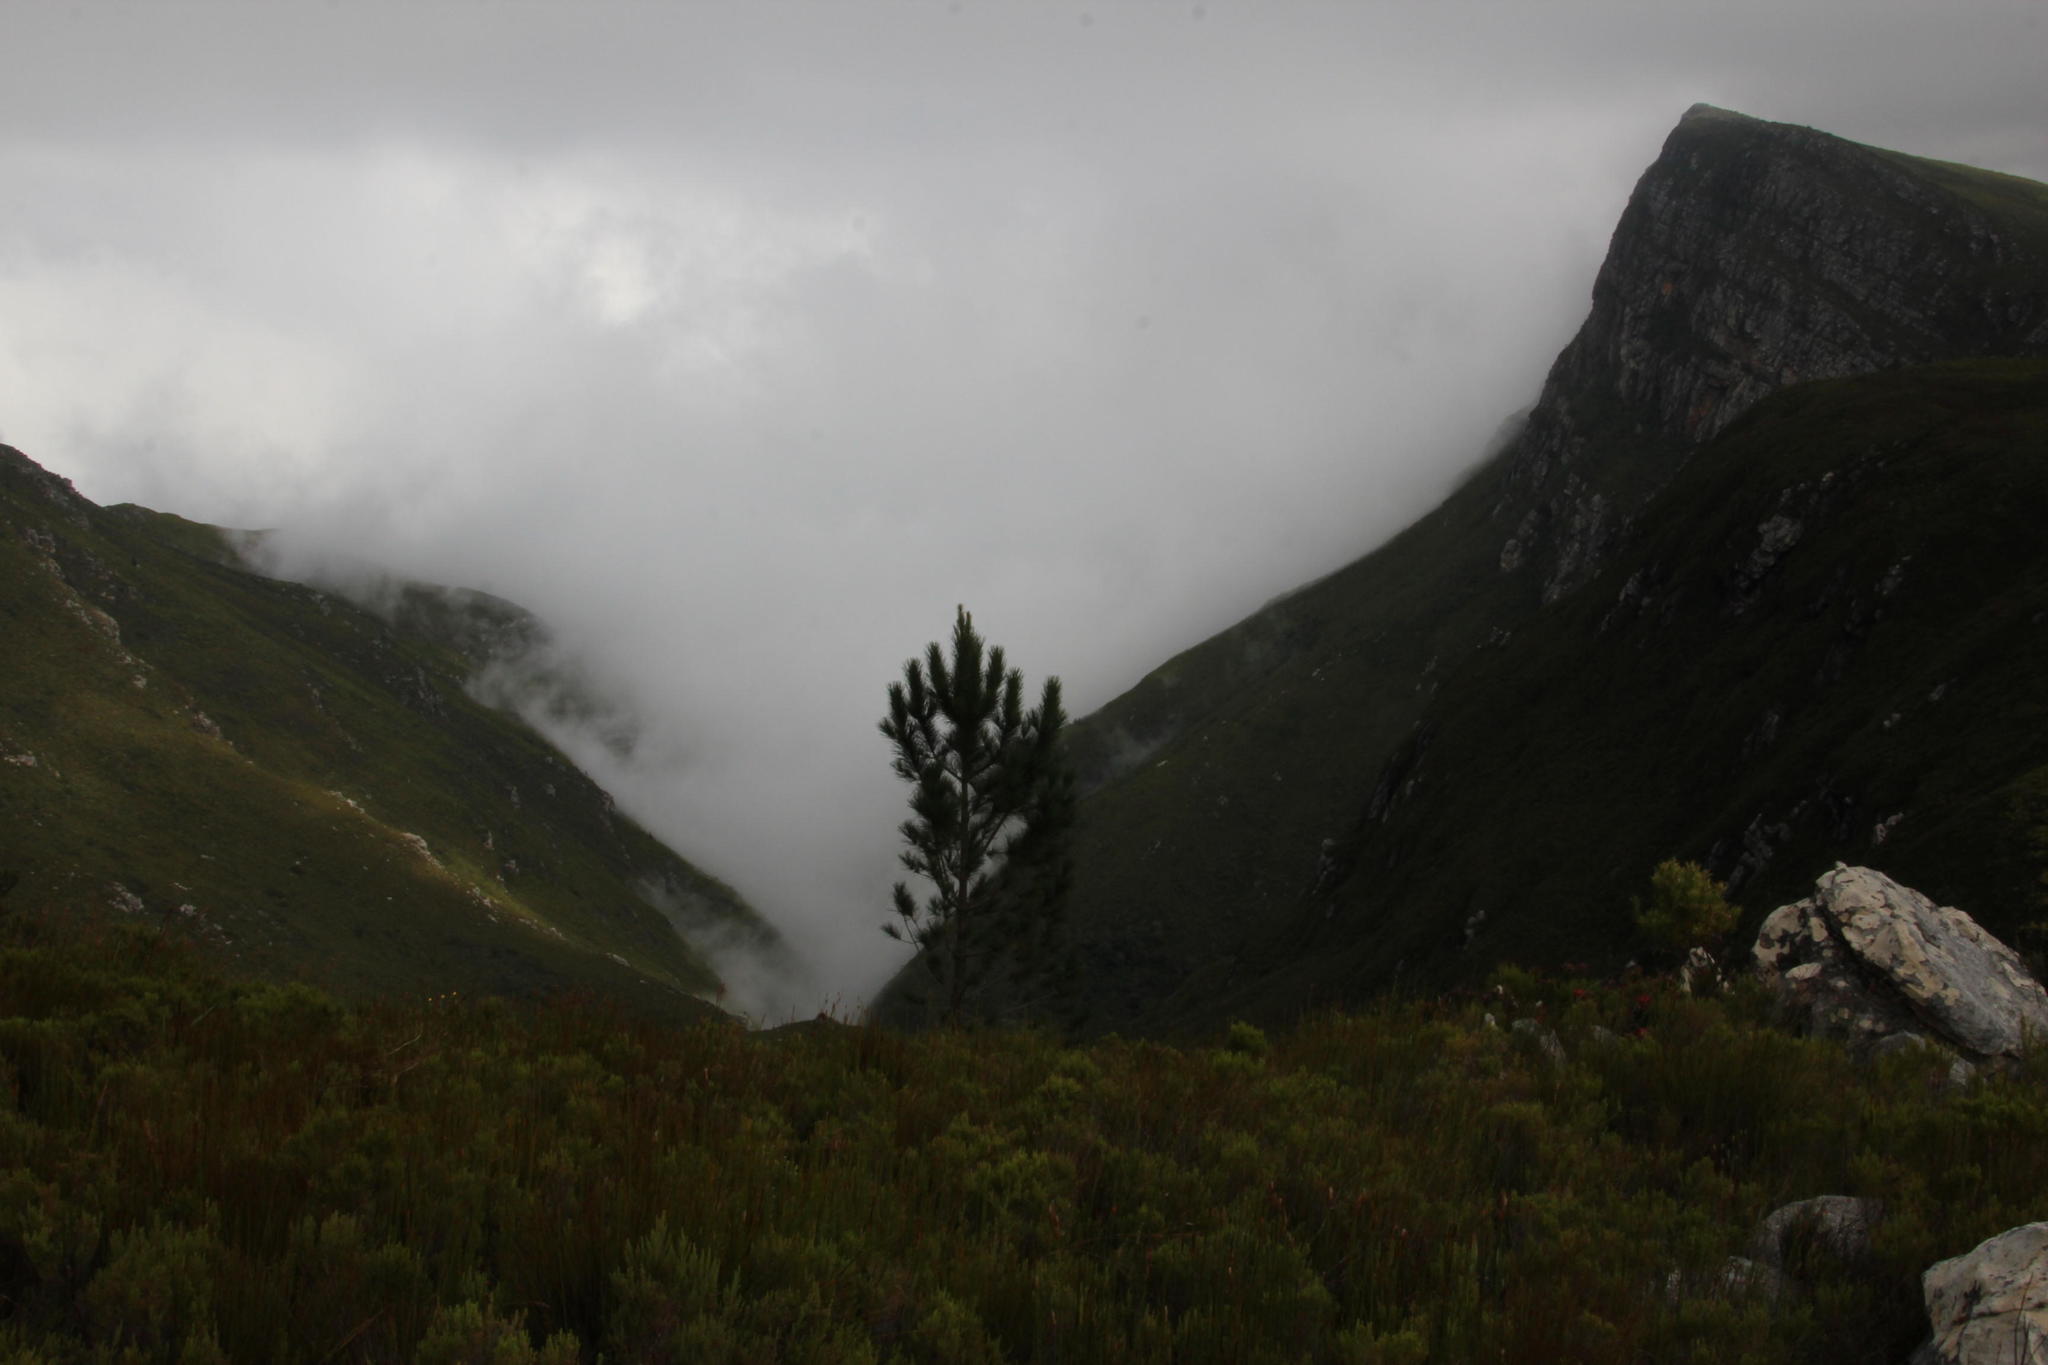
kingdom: Plantae
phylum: Tracheophyta
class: Pinopsida
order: Pinales
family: Pinaceae
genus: Pinus
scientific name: Pinus pinaster
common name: Maritime pine
